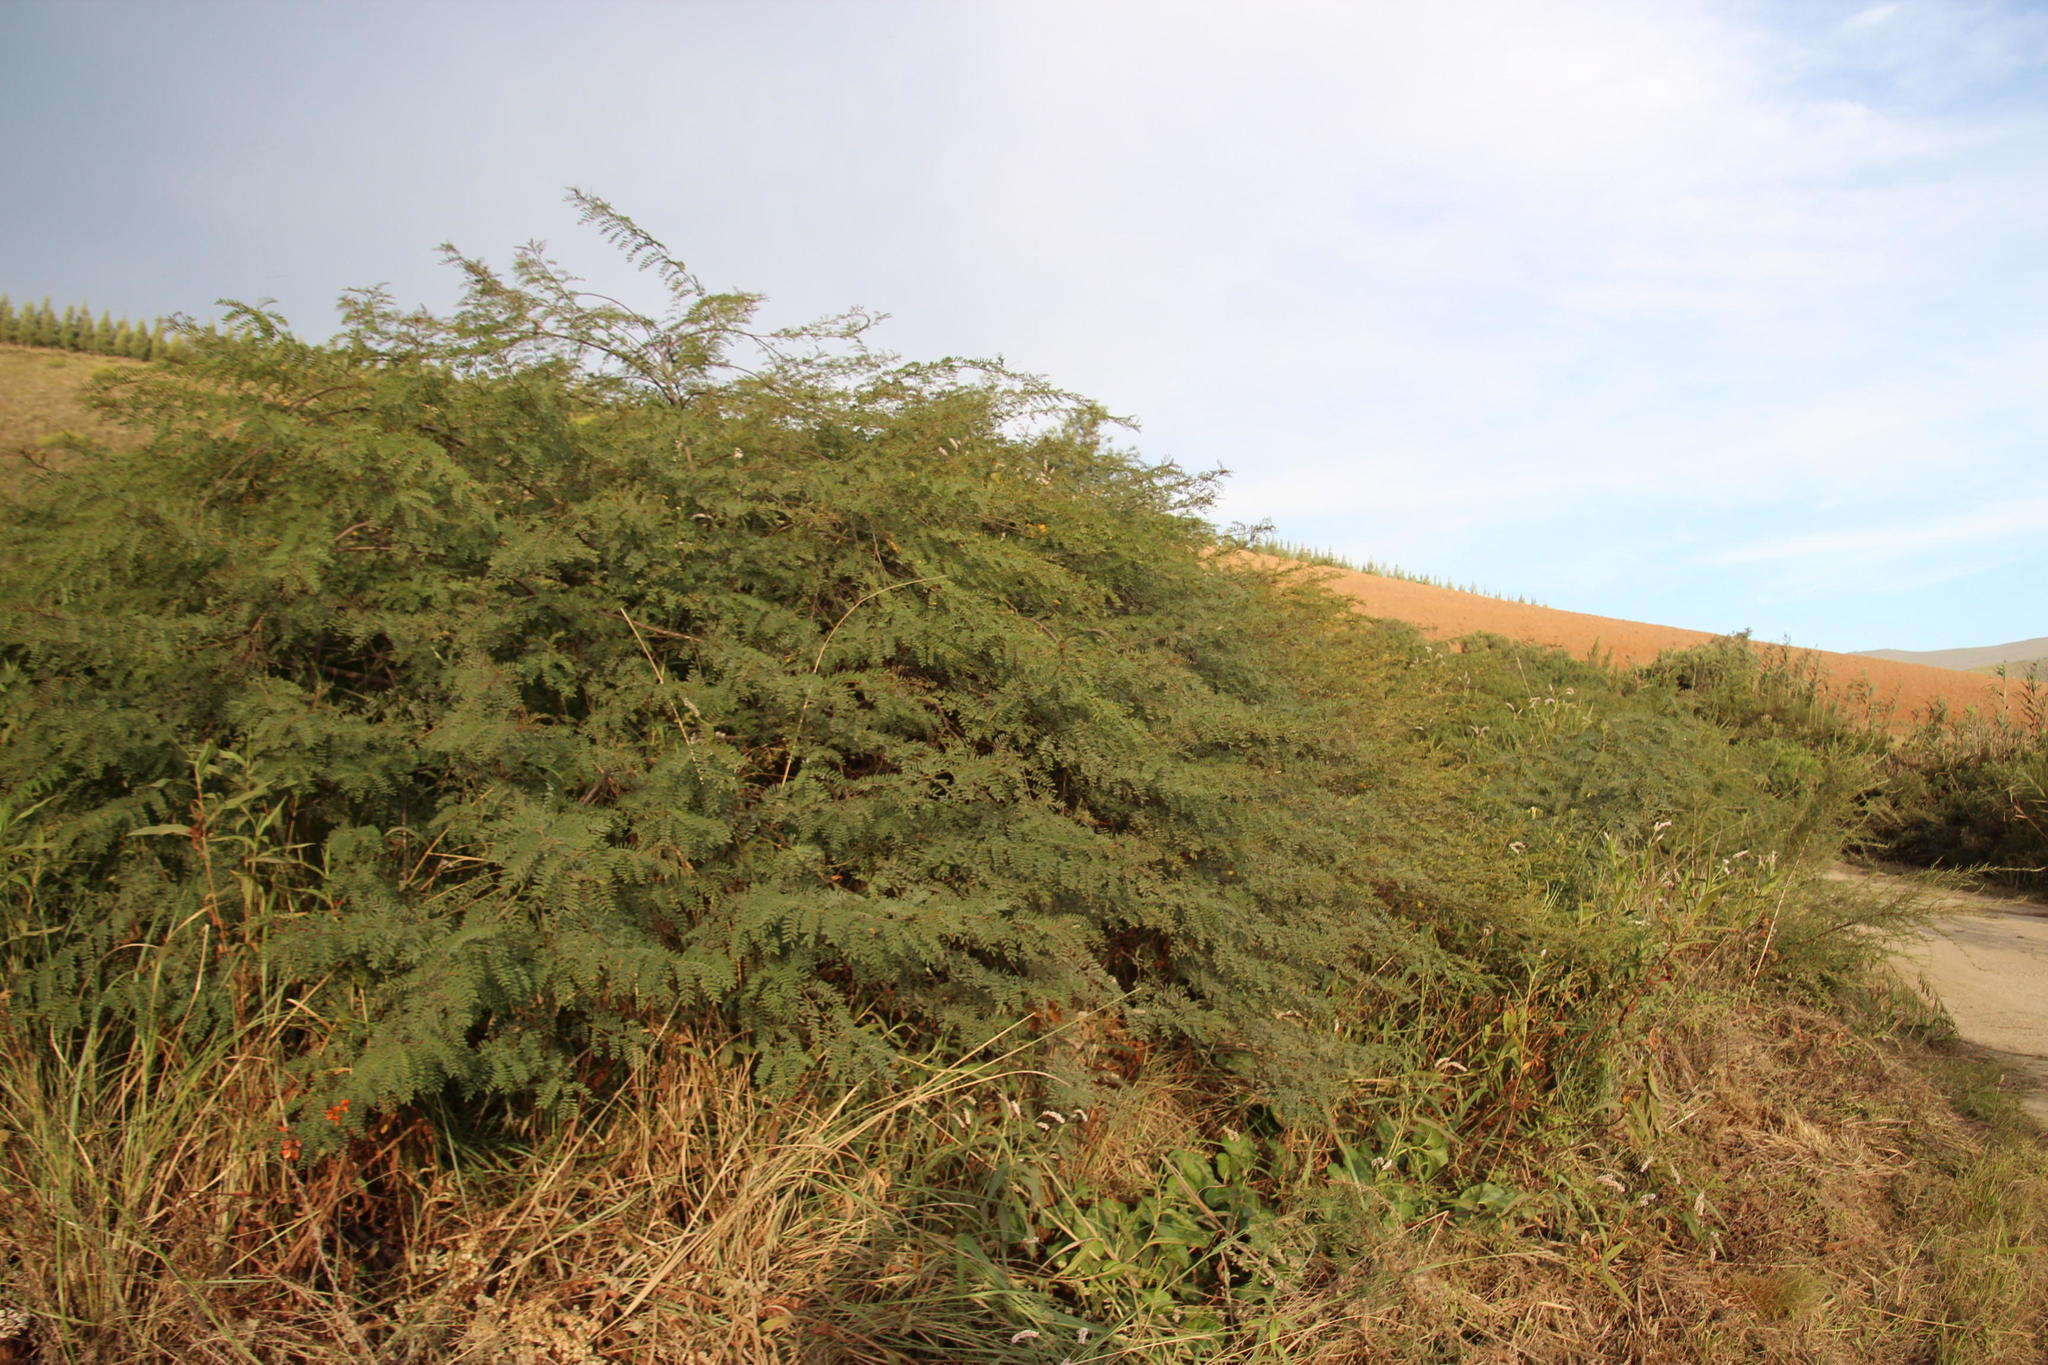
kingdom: Plantae
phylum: Tracheophyta
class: Magnoliopsida
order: Fabales
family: Fabaceae
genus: Sesbania
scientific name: Sesbania punicea
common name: Rattlebox
